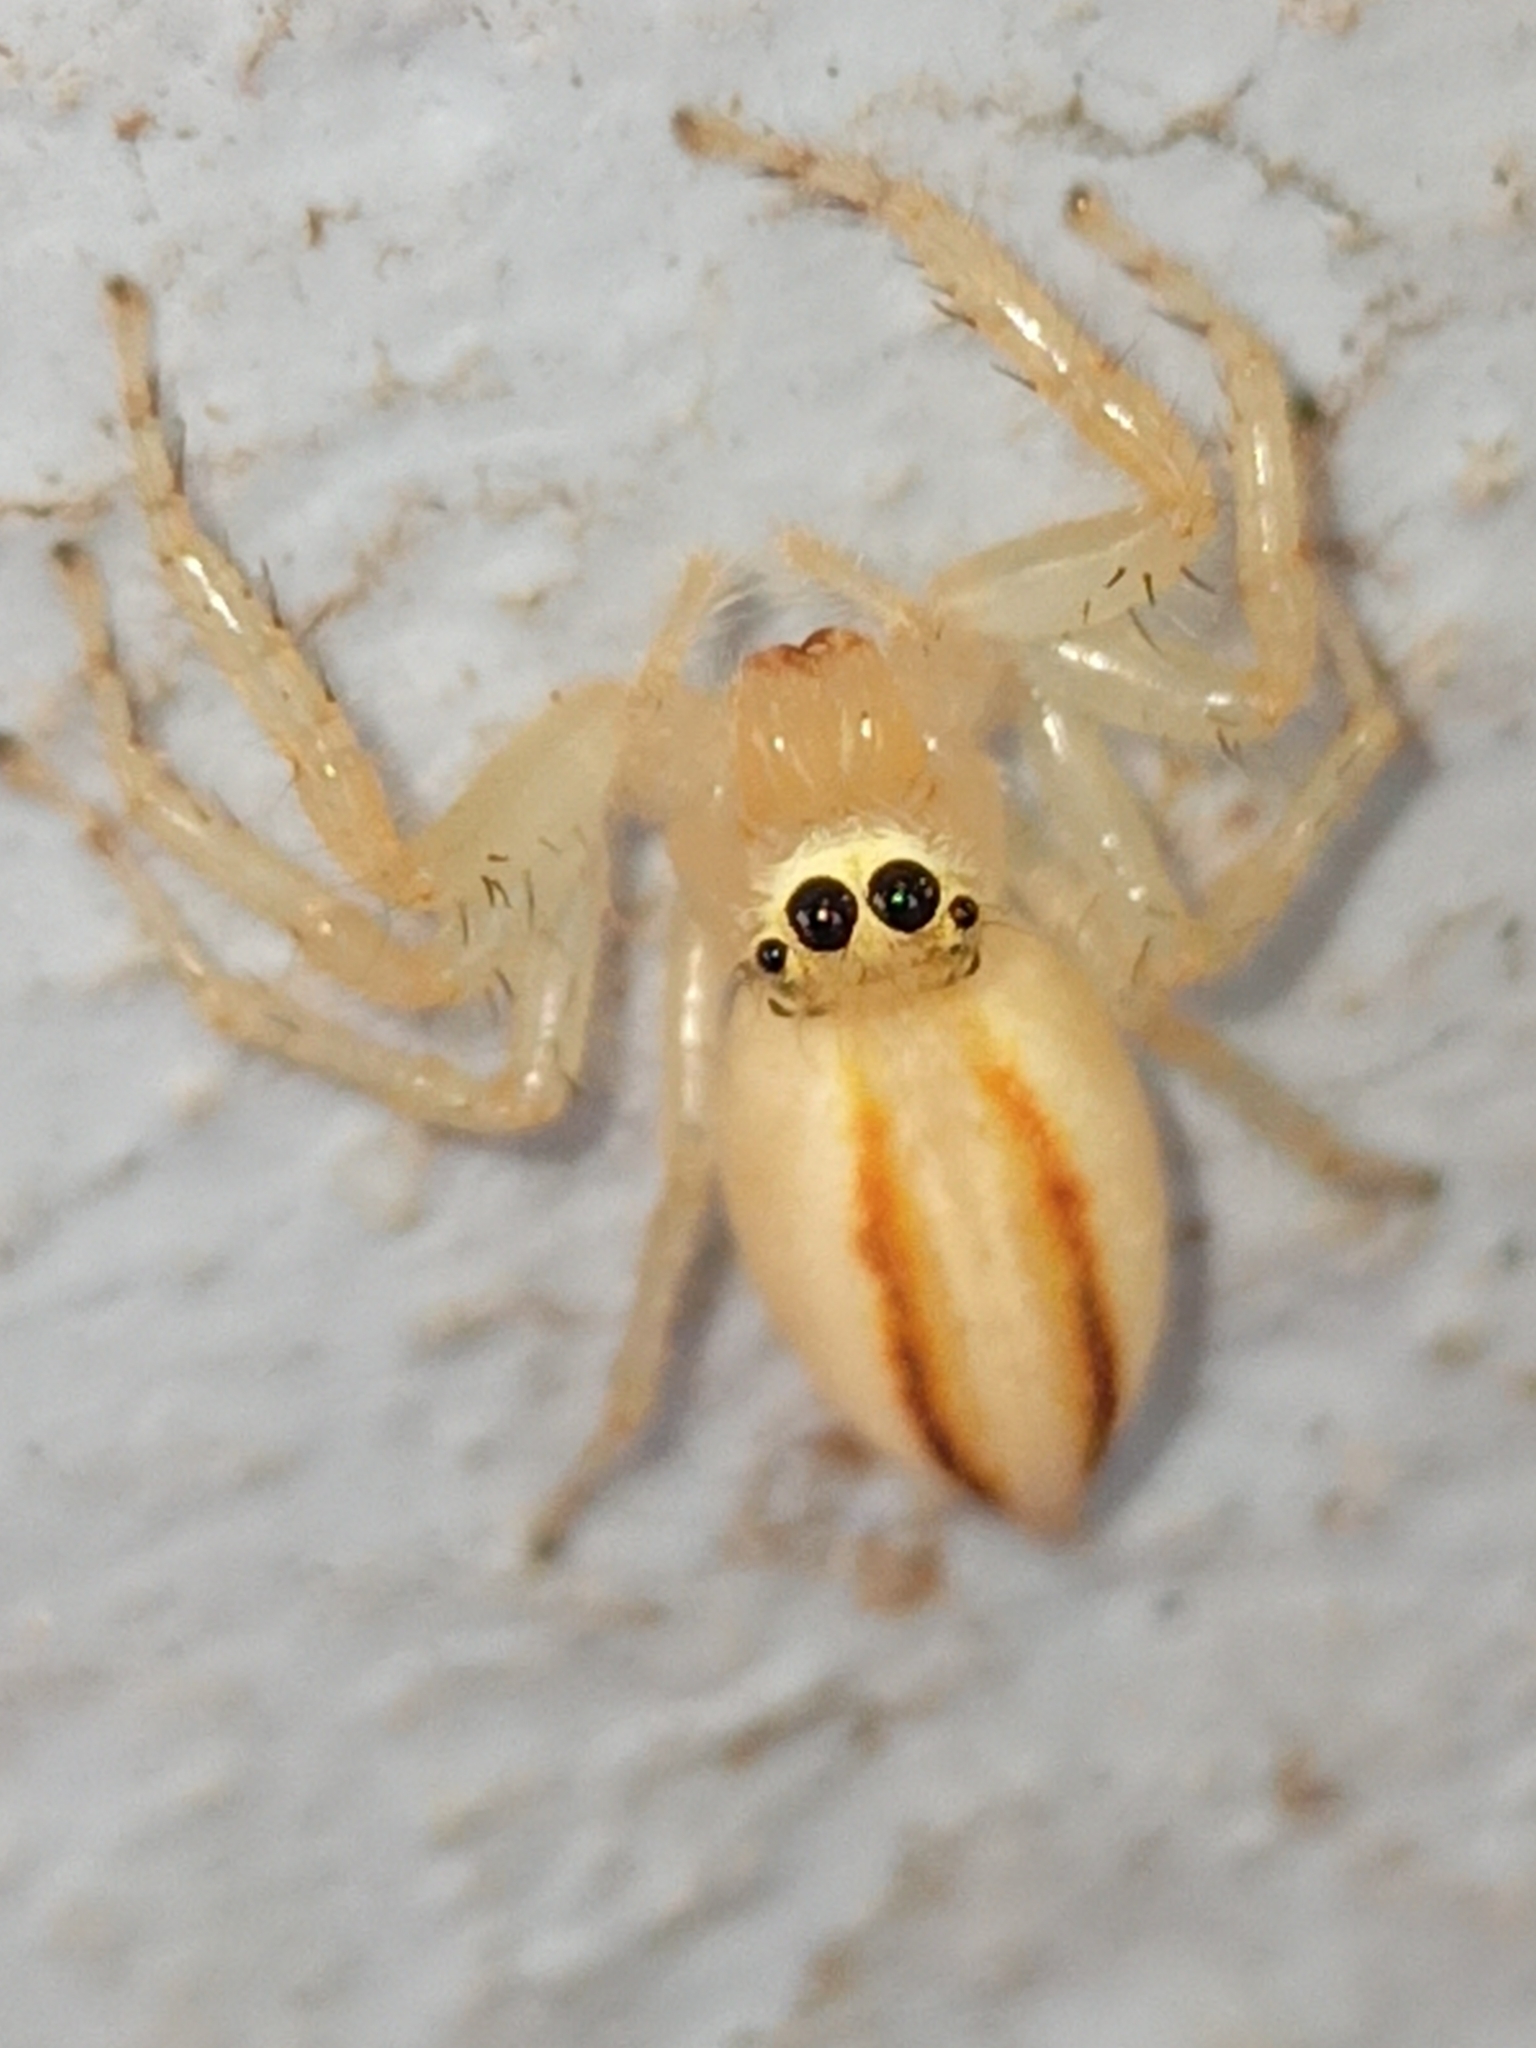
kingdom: Animalia
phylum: Arthropoda
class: Arachnida
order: Araneae
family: Salticidae
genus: Telamonia
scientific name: Telamonia dimidiata
